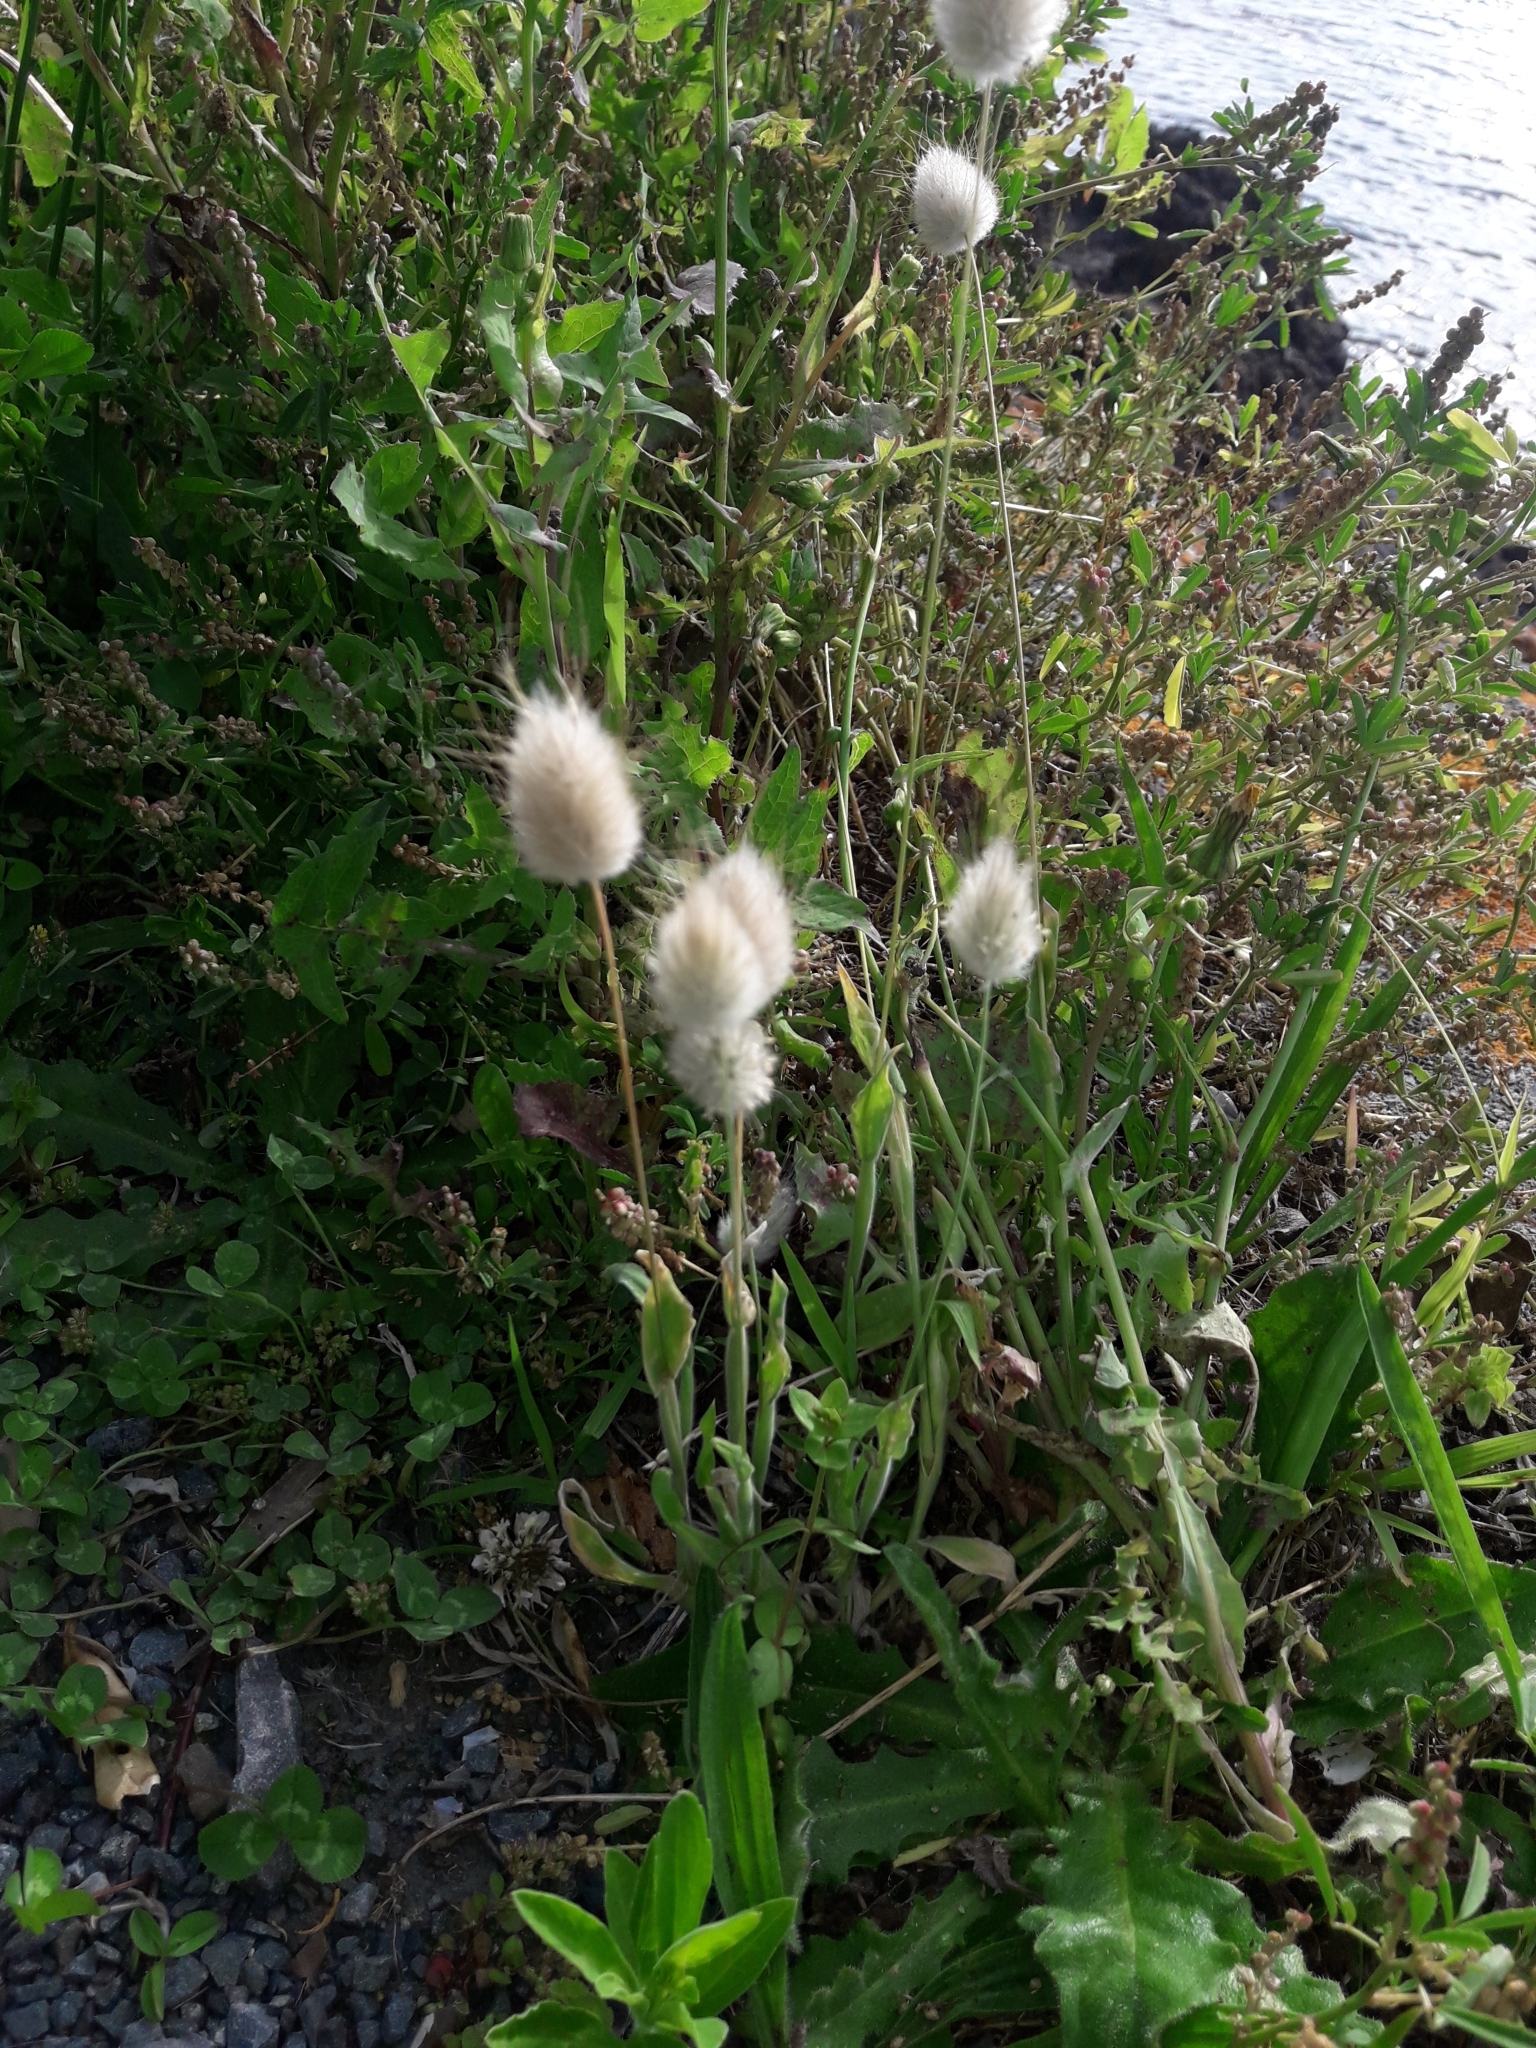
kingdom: Plantae
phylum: Tracheophyta
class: Liliopsida
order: Poales
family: Poaceae
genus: Lagurus
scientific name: Lagurus ovatus
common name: Hare's-tail
